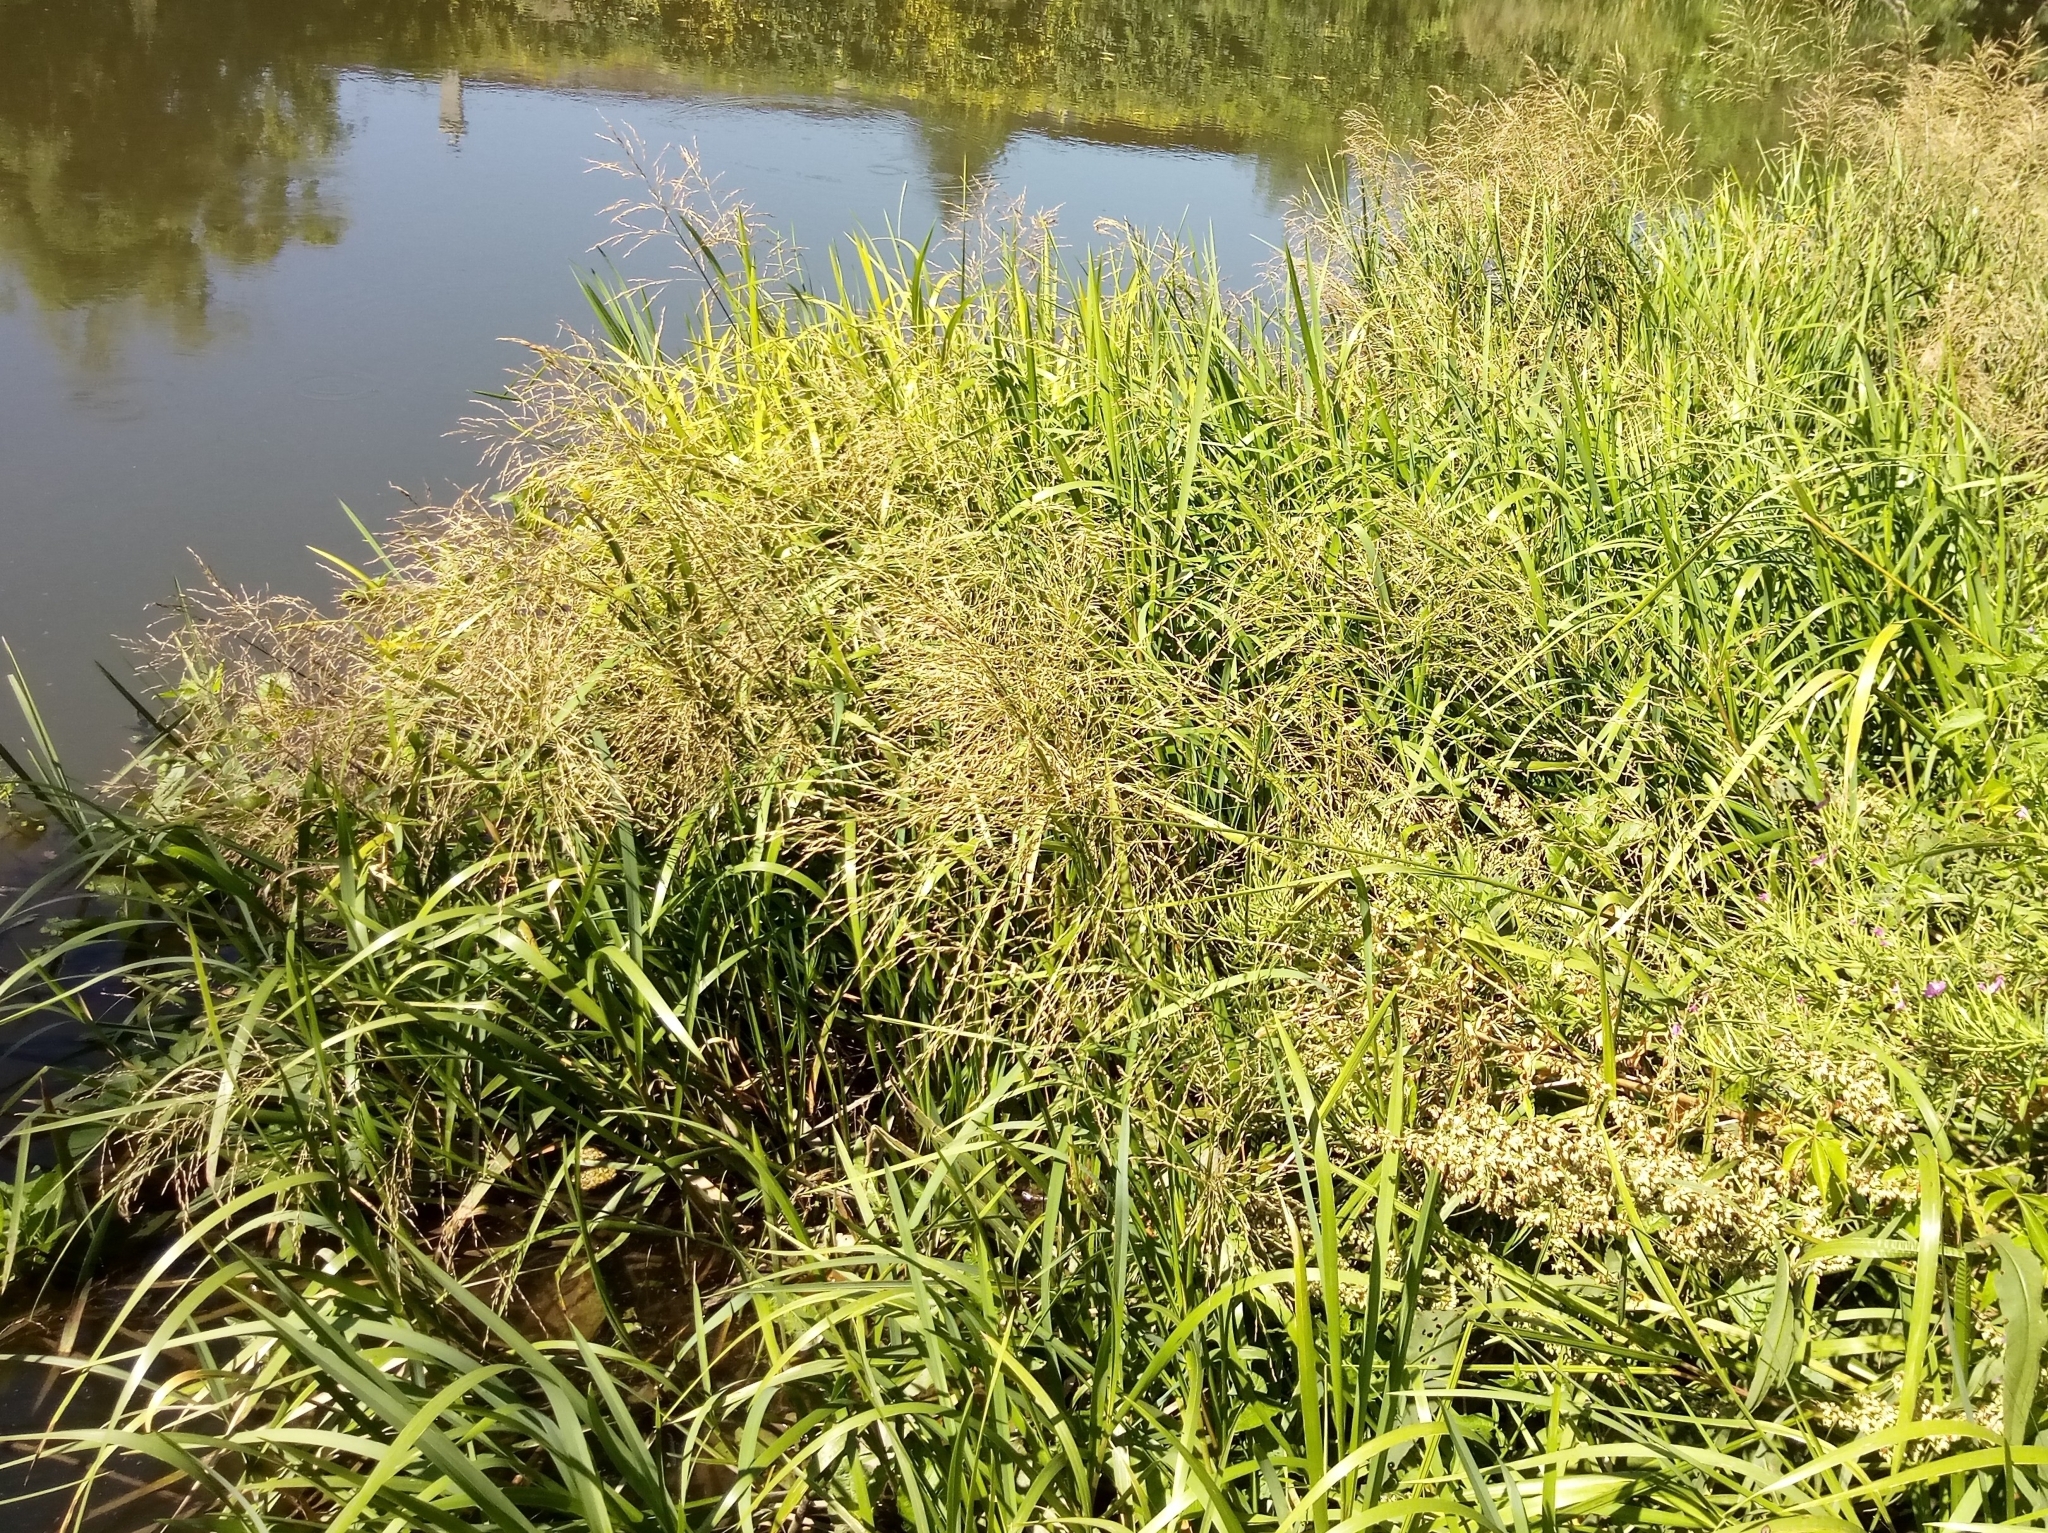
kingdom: Plantae
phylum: Tracheophyta
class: Liliopsida
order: Poales
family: Poaceae
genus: Glyceria
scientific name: Glyceria maxima
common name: Reed mannagrass
